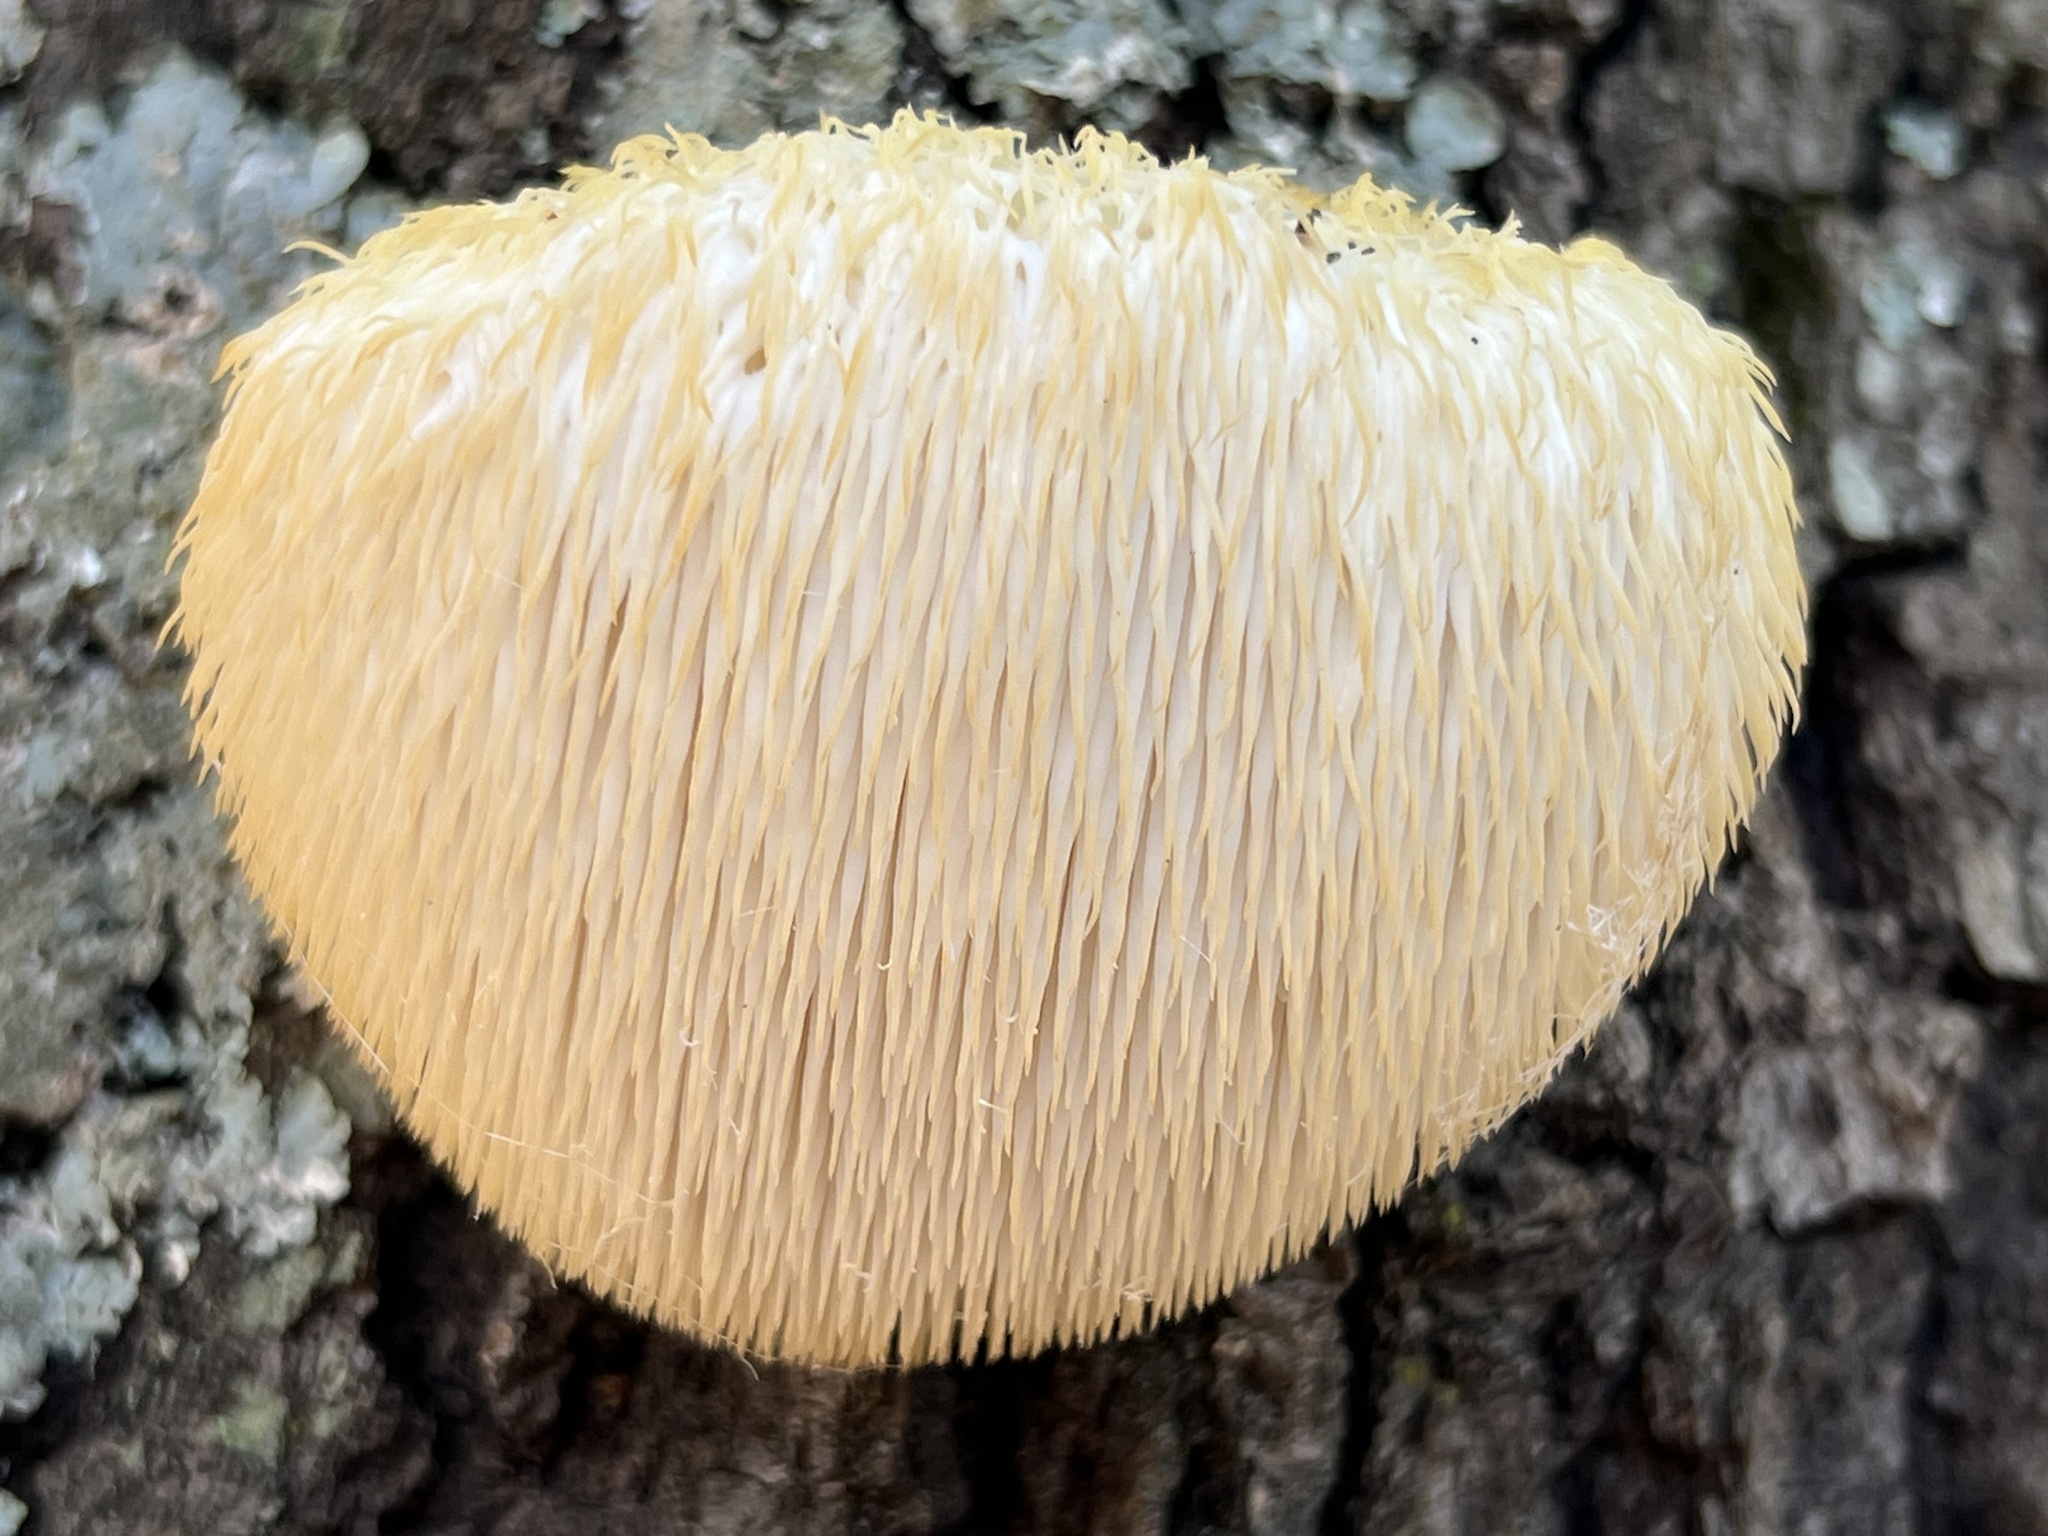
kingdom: Fungi
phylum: Basidiomycota
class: Agaricomycetes
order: Russulales
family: Hericiaceae
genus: Hericium
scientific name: Hericium erinaceus
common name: Bearded tooth
